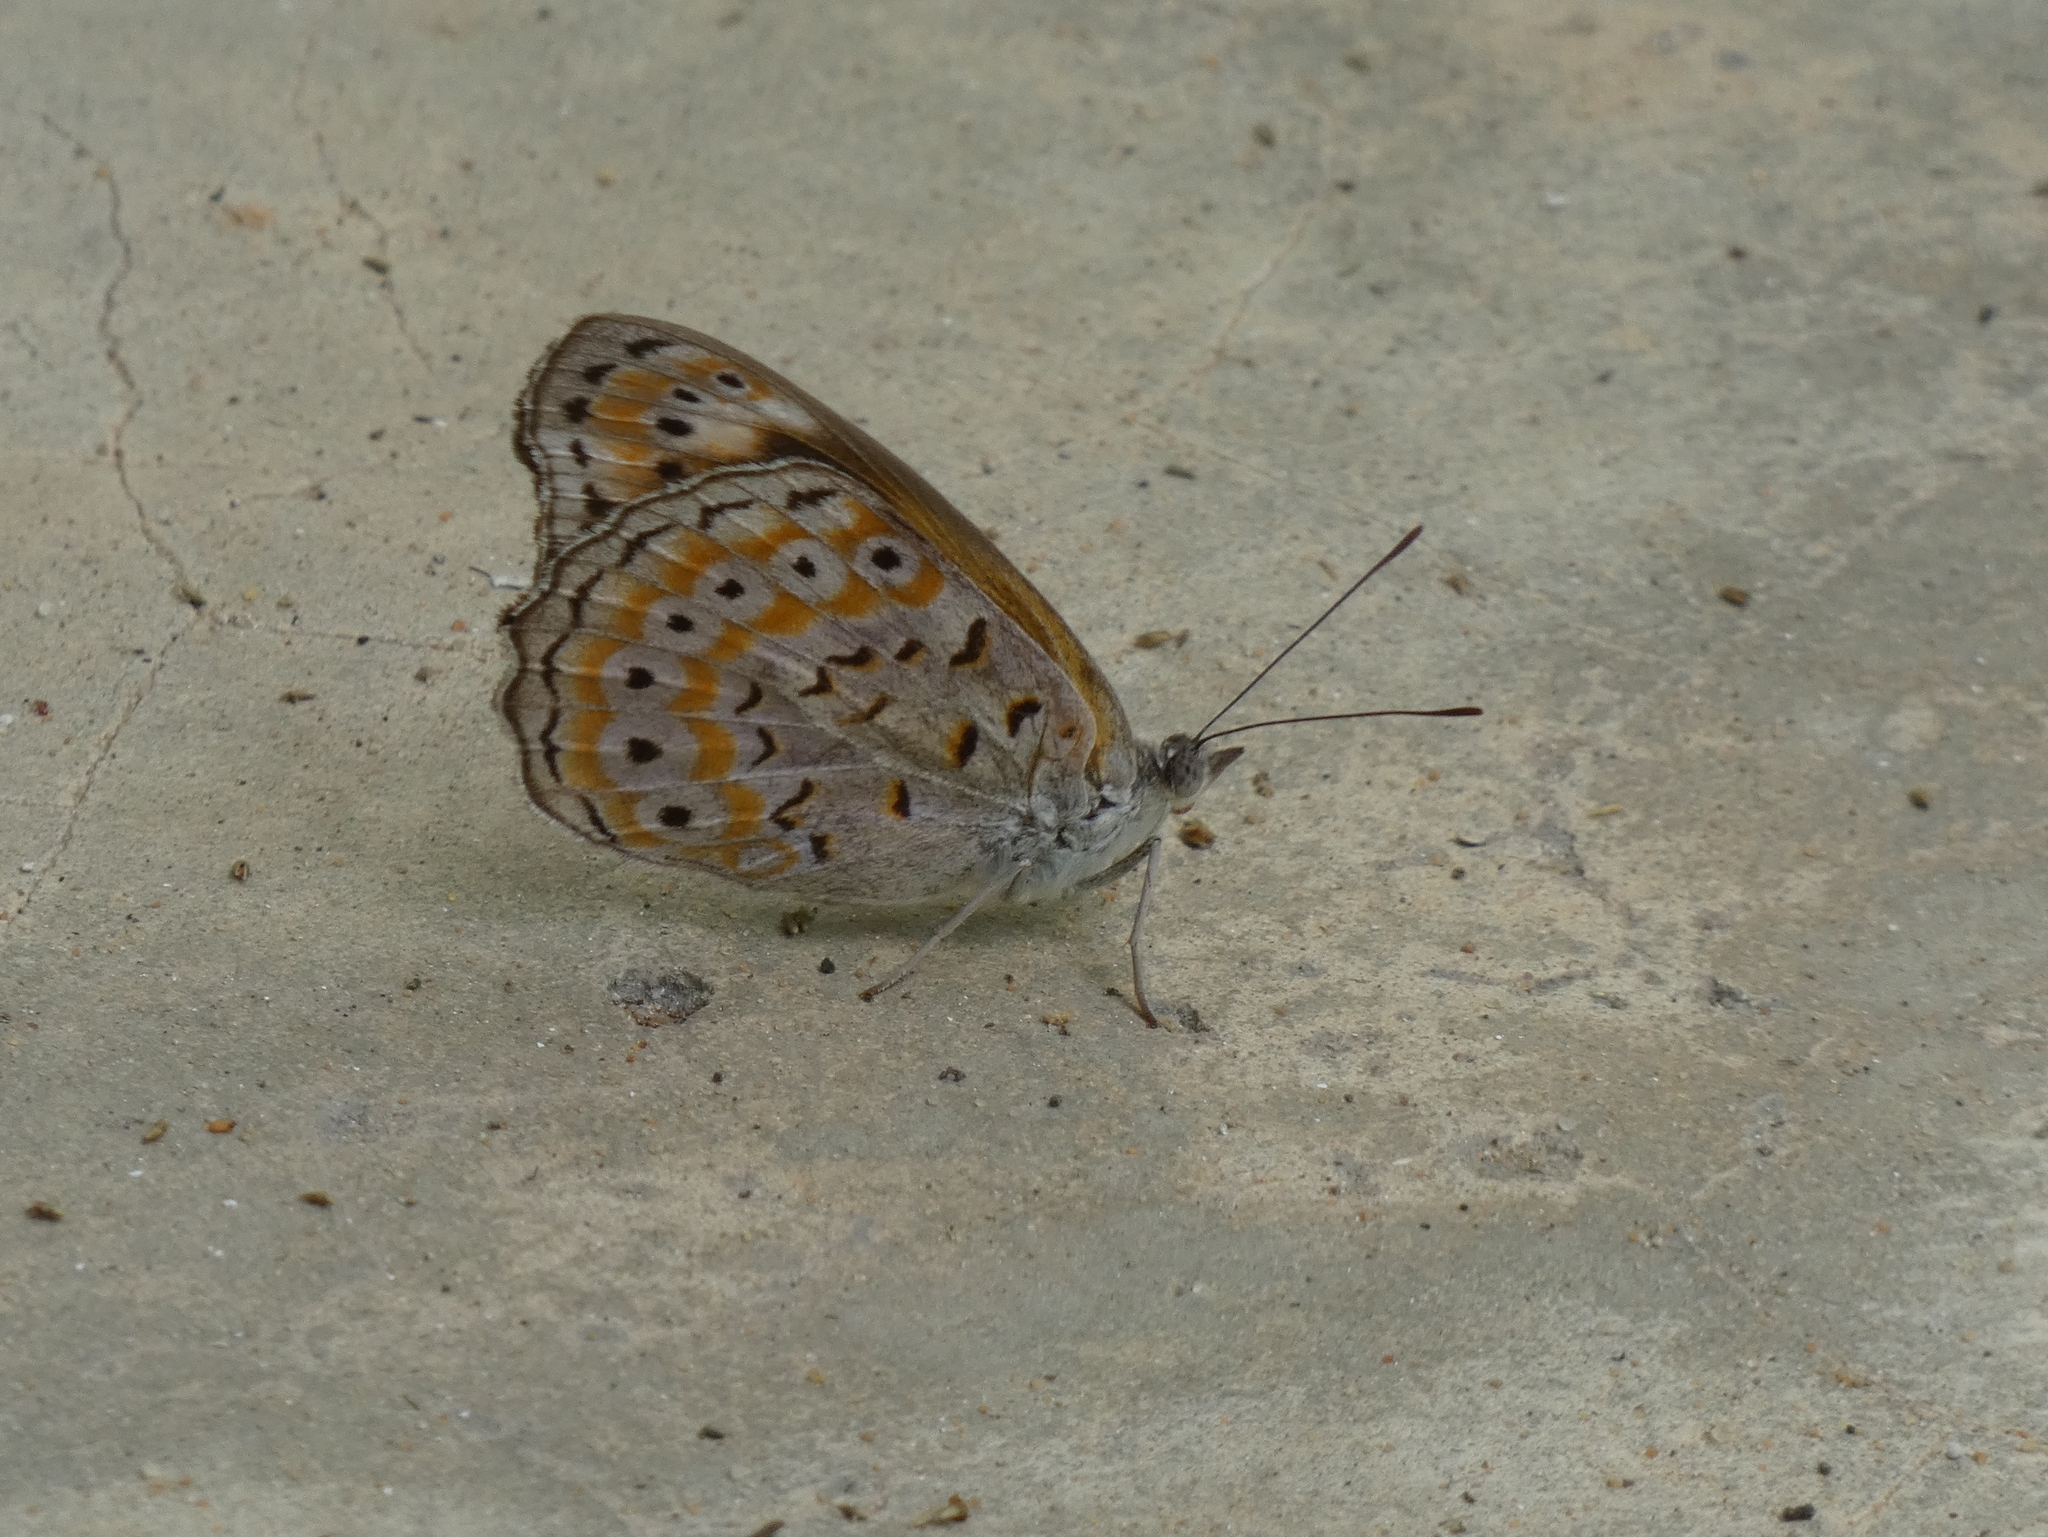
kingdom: Animalia
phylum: Arthropoda
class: Insecta
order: Lepidoptera
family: Nymphalidae
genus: Sevenia
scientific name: Sevenia
